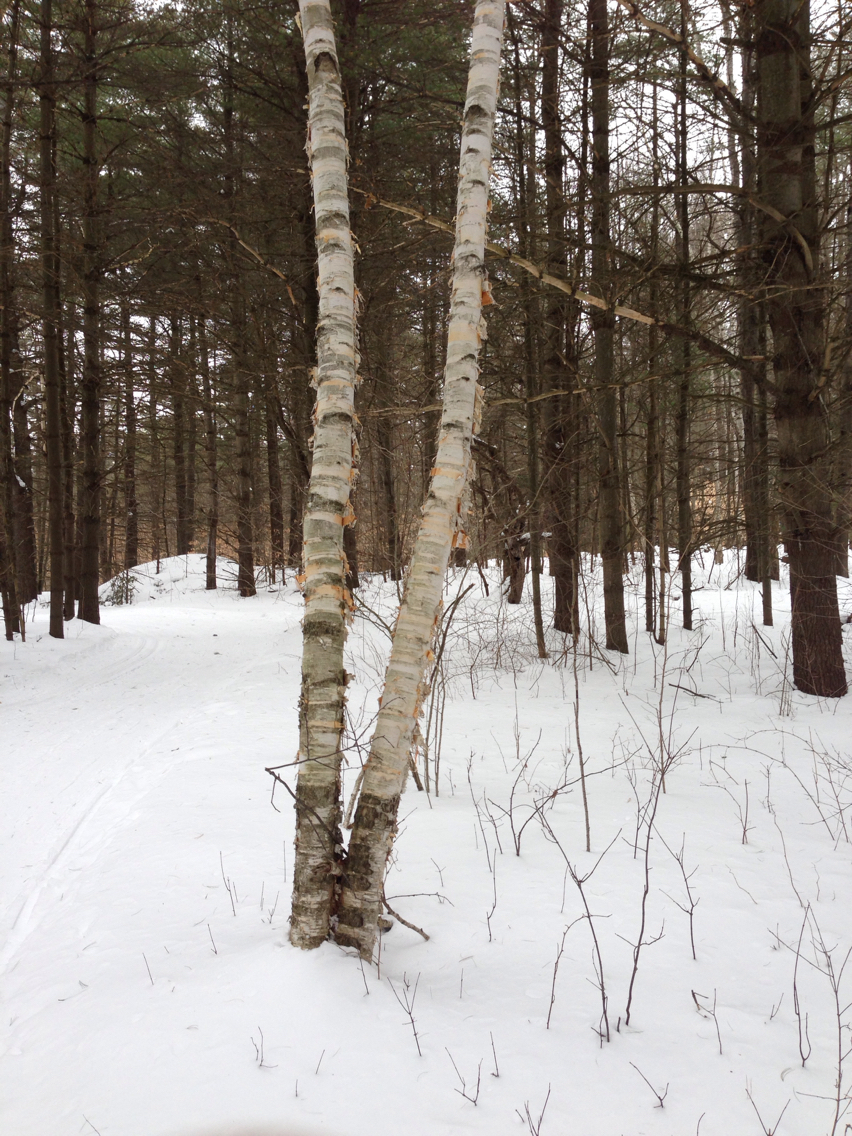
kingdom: Plantae
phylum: Tracheophyta
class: Magnoliopsida
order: Fagales
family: Betulaceae
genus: Betula
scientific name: Betula papyrifera
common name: Paper birch
